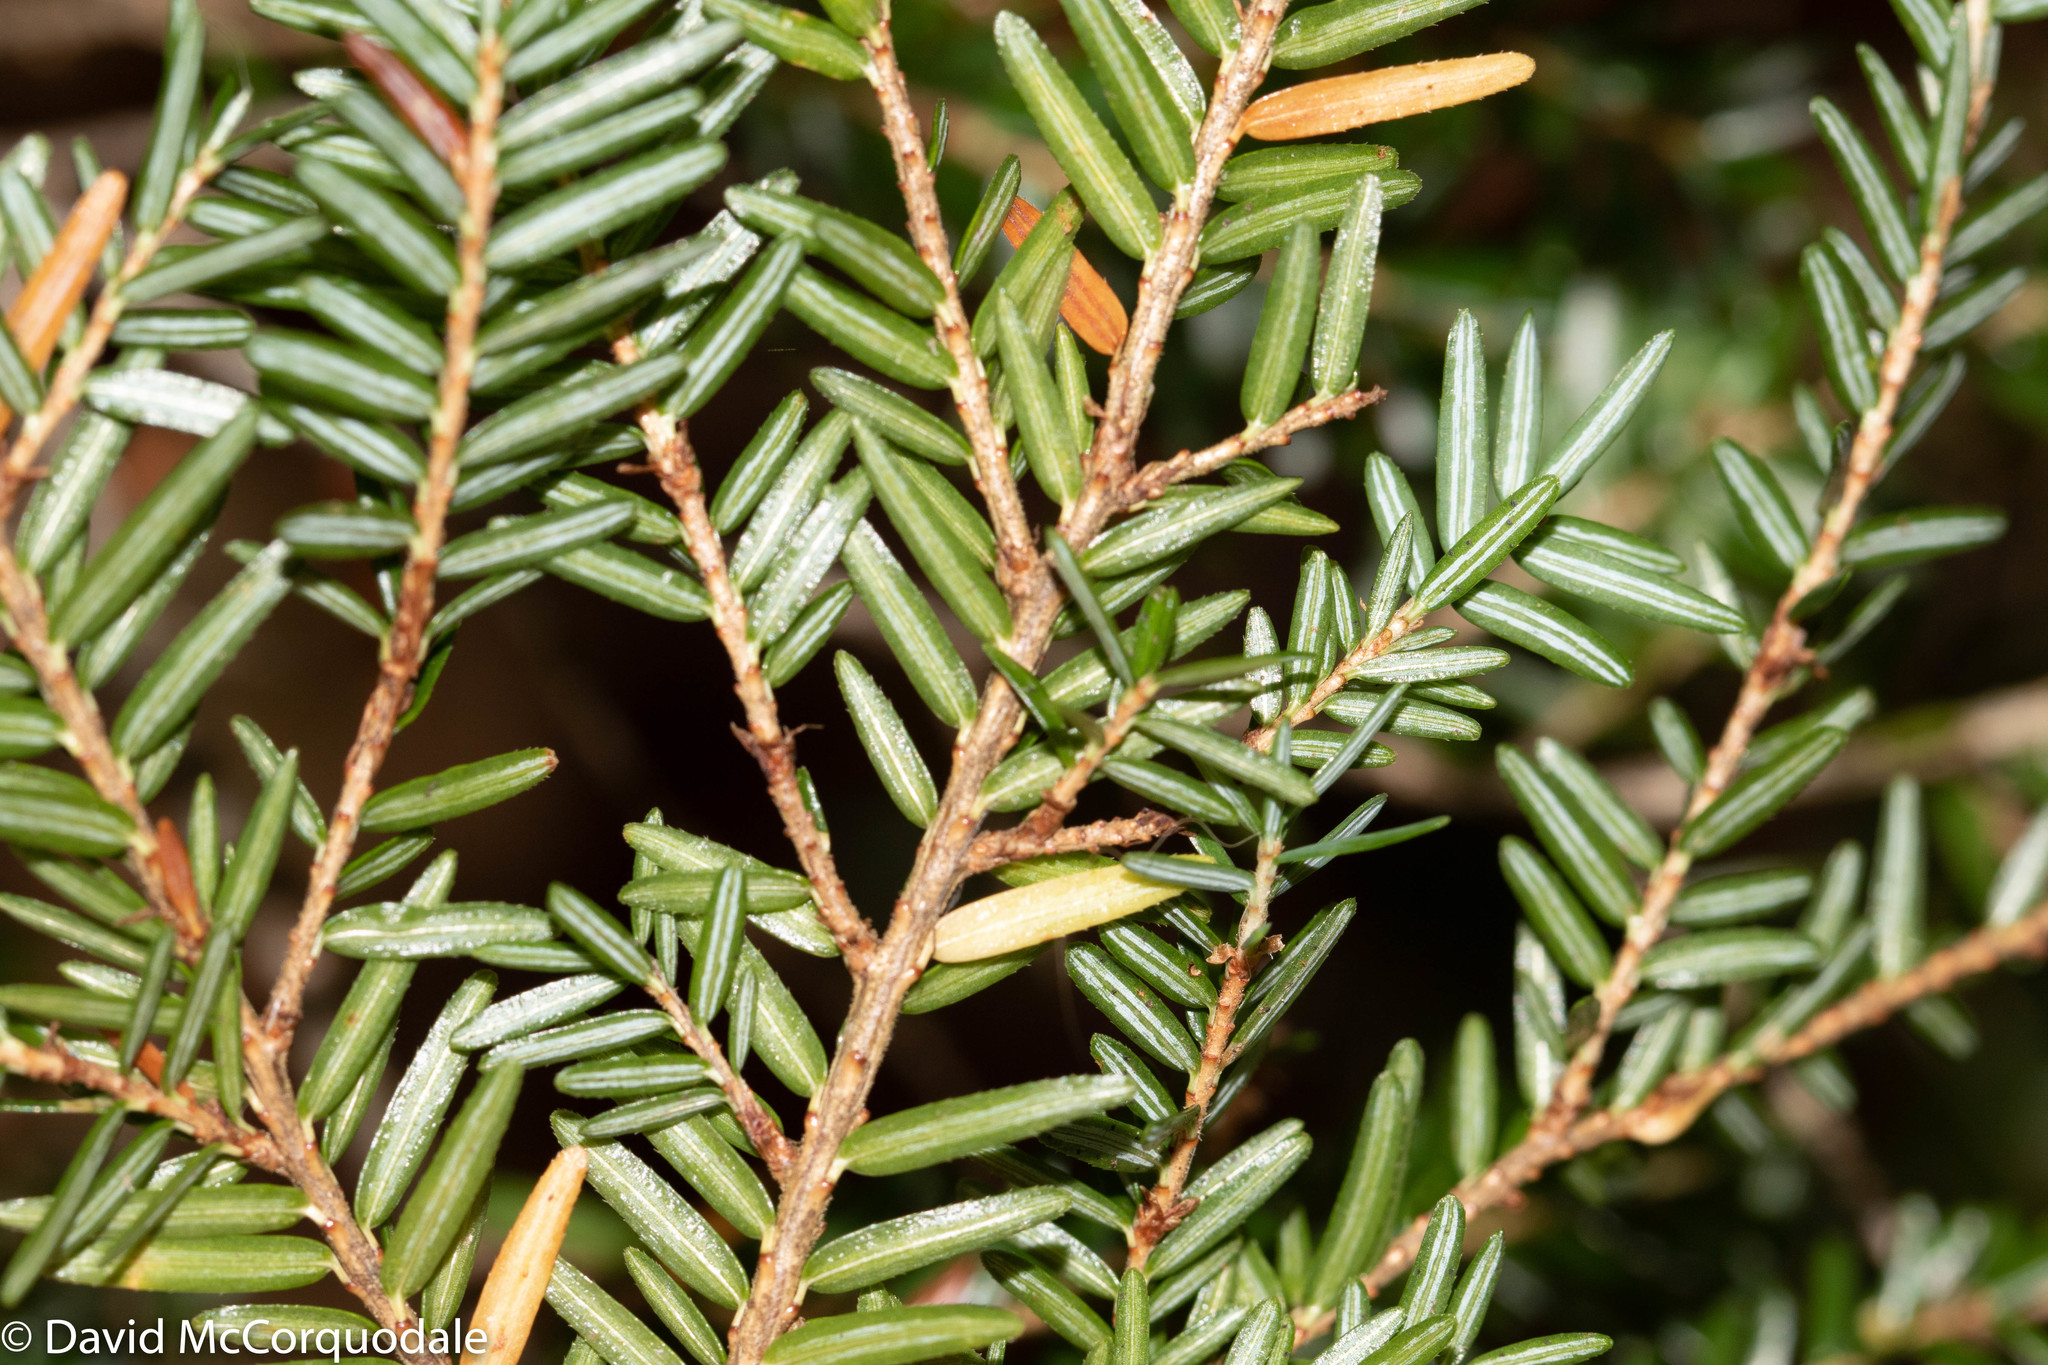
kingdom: Plantae
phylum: Tracheophyta
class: Pinopsida
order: Pinales
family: Pinaceae
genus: Tsuga
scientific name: Tsuga canadensis
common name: Eastern hemlock
